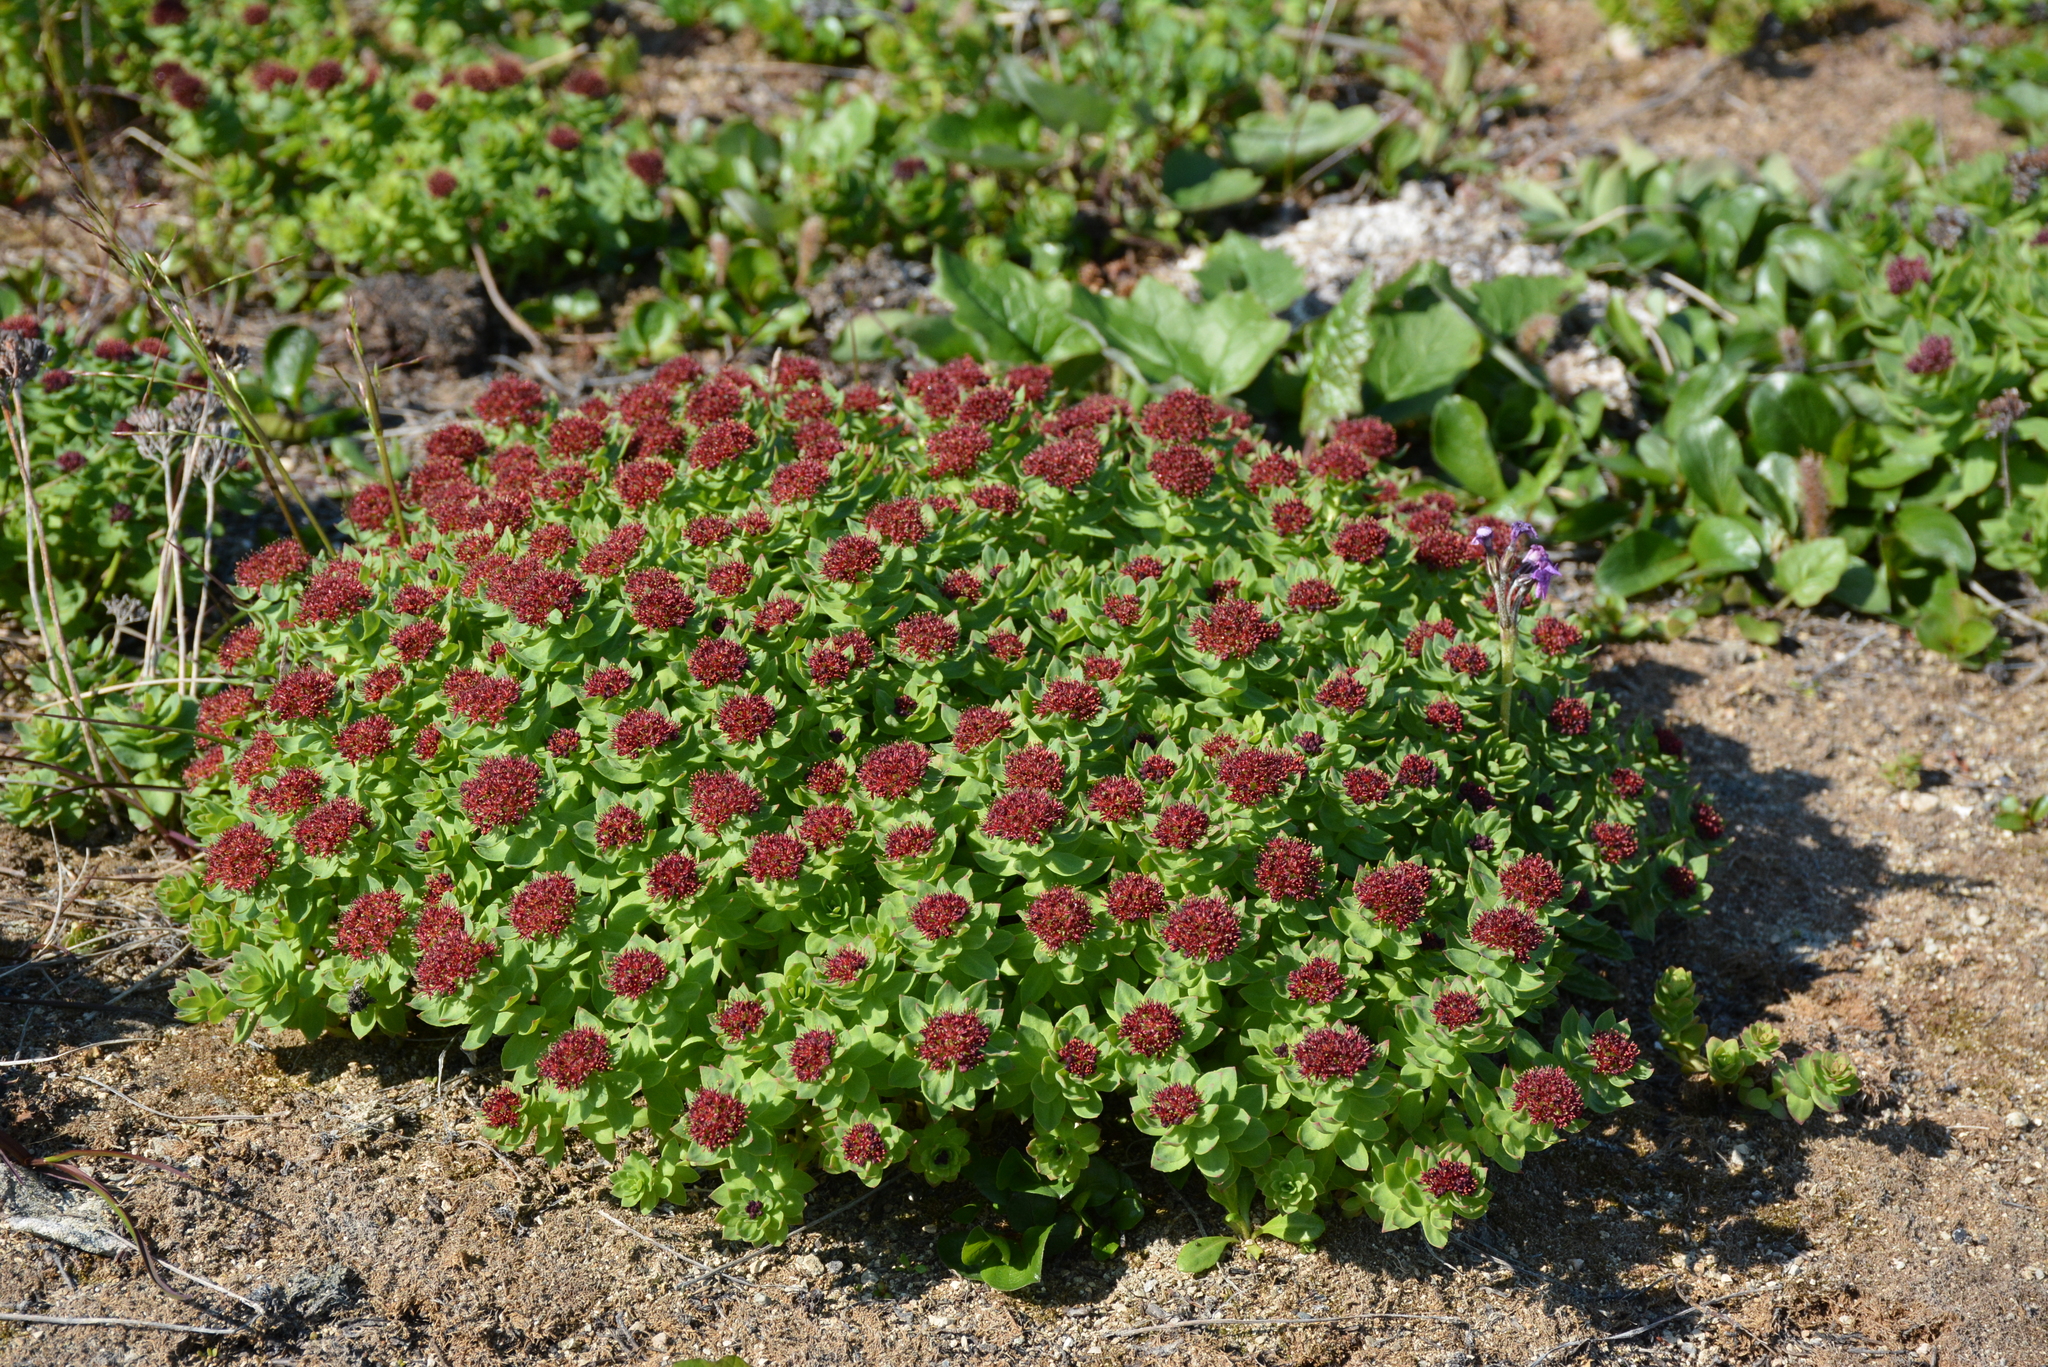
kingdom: Plantae
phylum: Tracheophyta
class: Magnoliopsida
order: Saxifragales
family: Crassulaceae
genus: Rhodiola
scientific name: Rhodiola integrifolia
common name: Western roseroot
